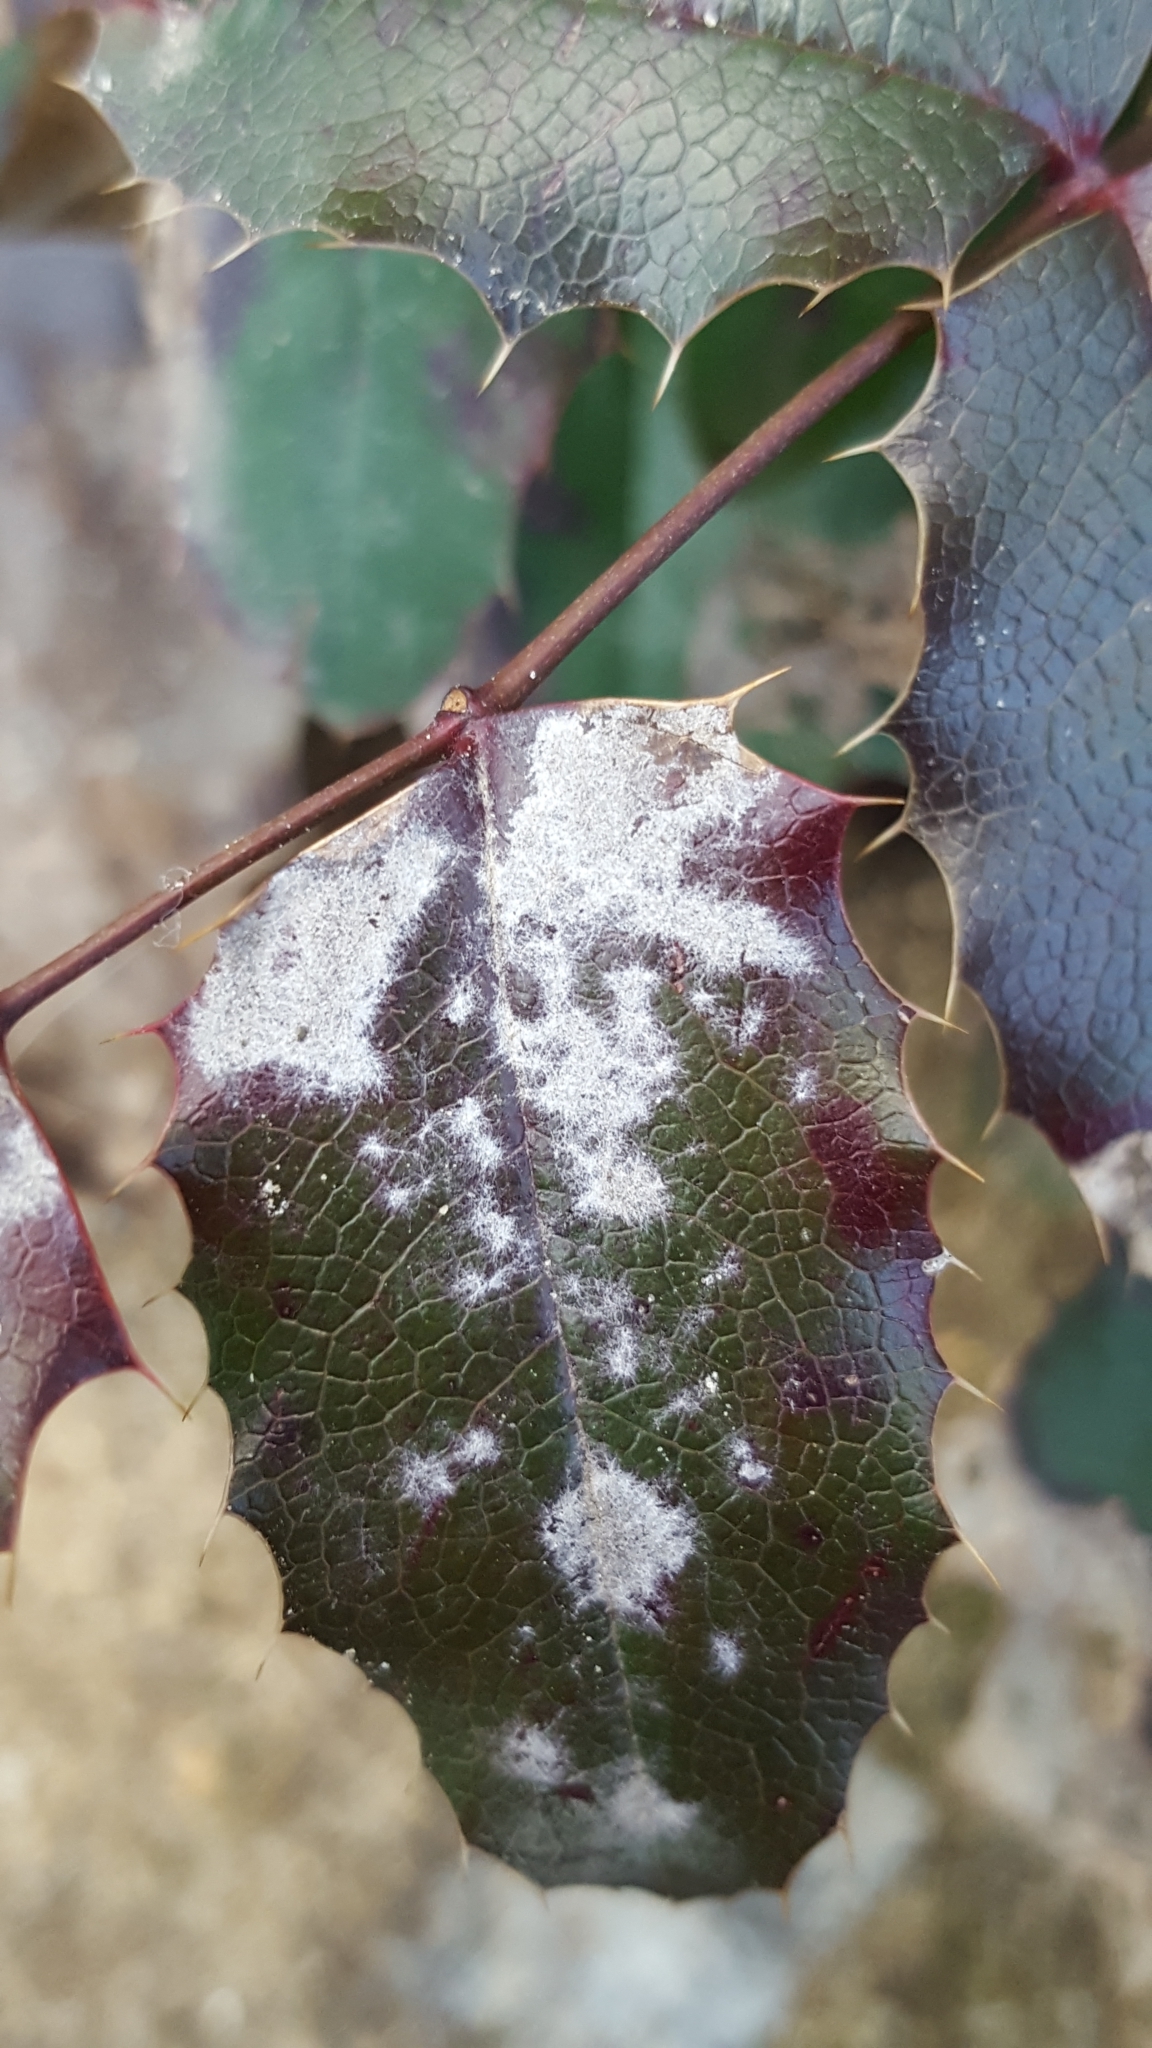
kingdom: Fungi
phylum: Ascomycota
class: Leotiomycetes
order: Helotiales
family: Erysiphaceae
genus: Erysiphe
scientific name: Erysiphe berberidis
